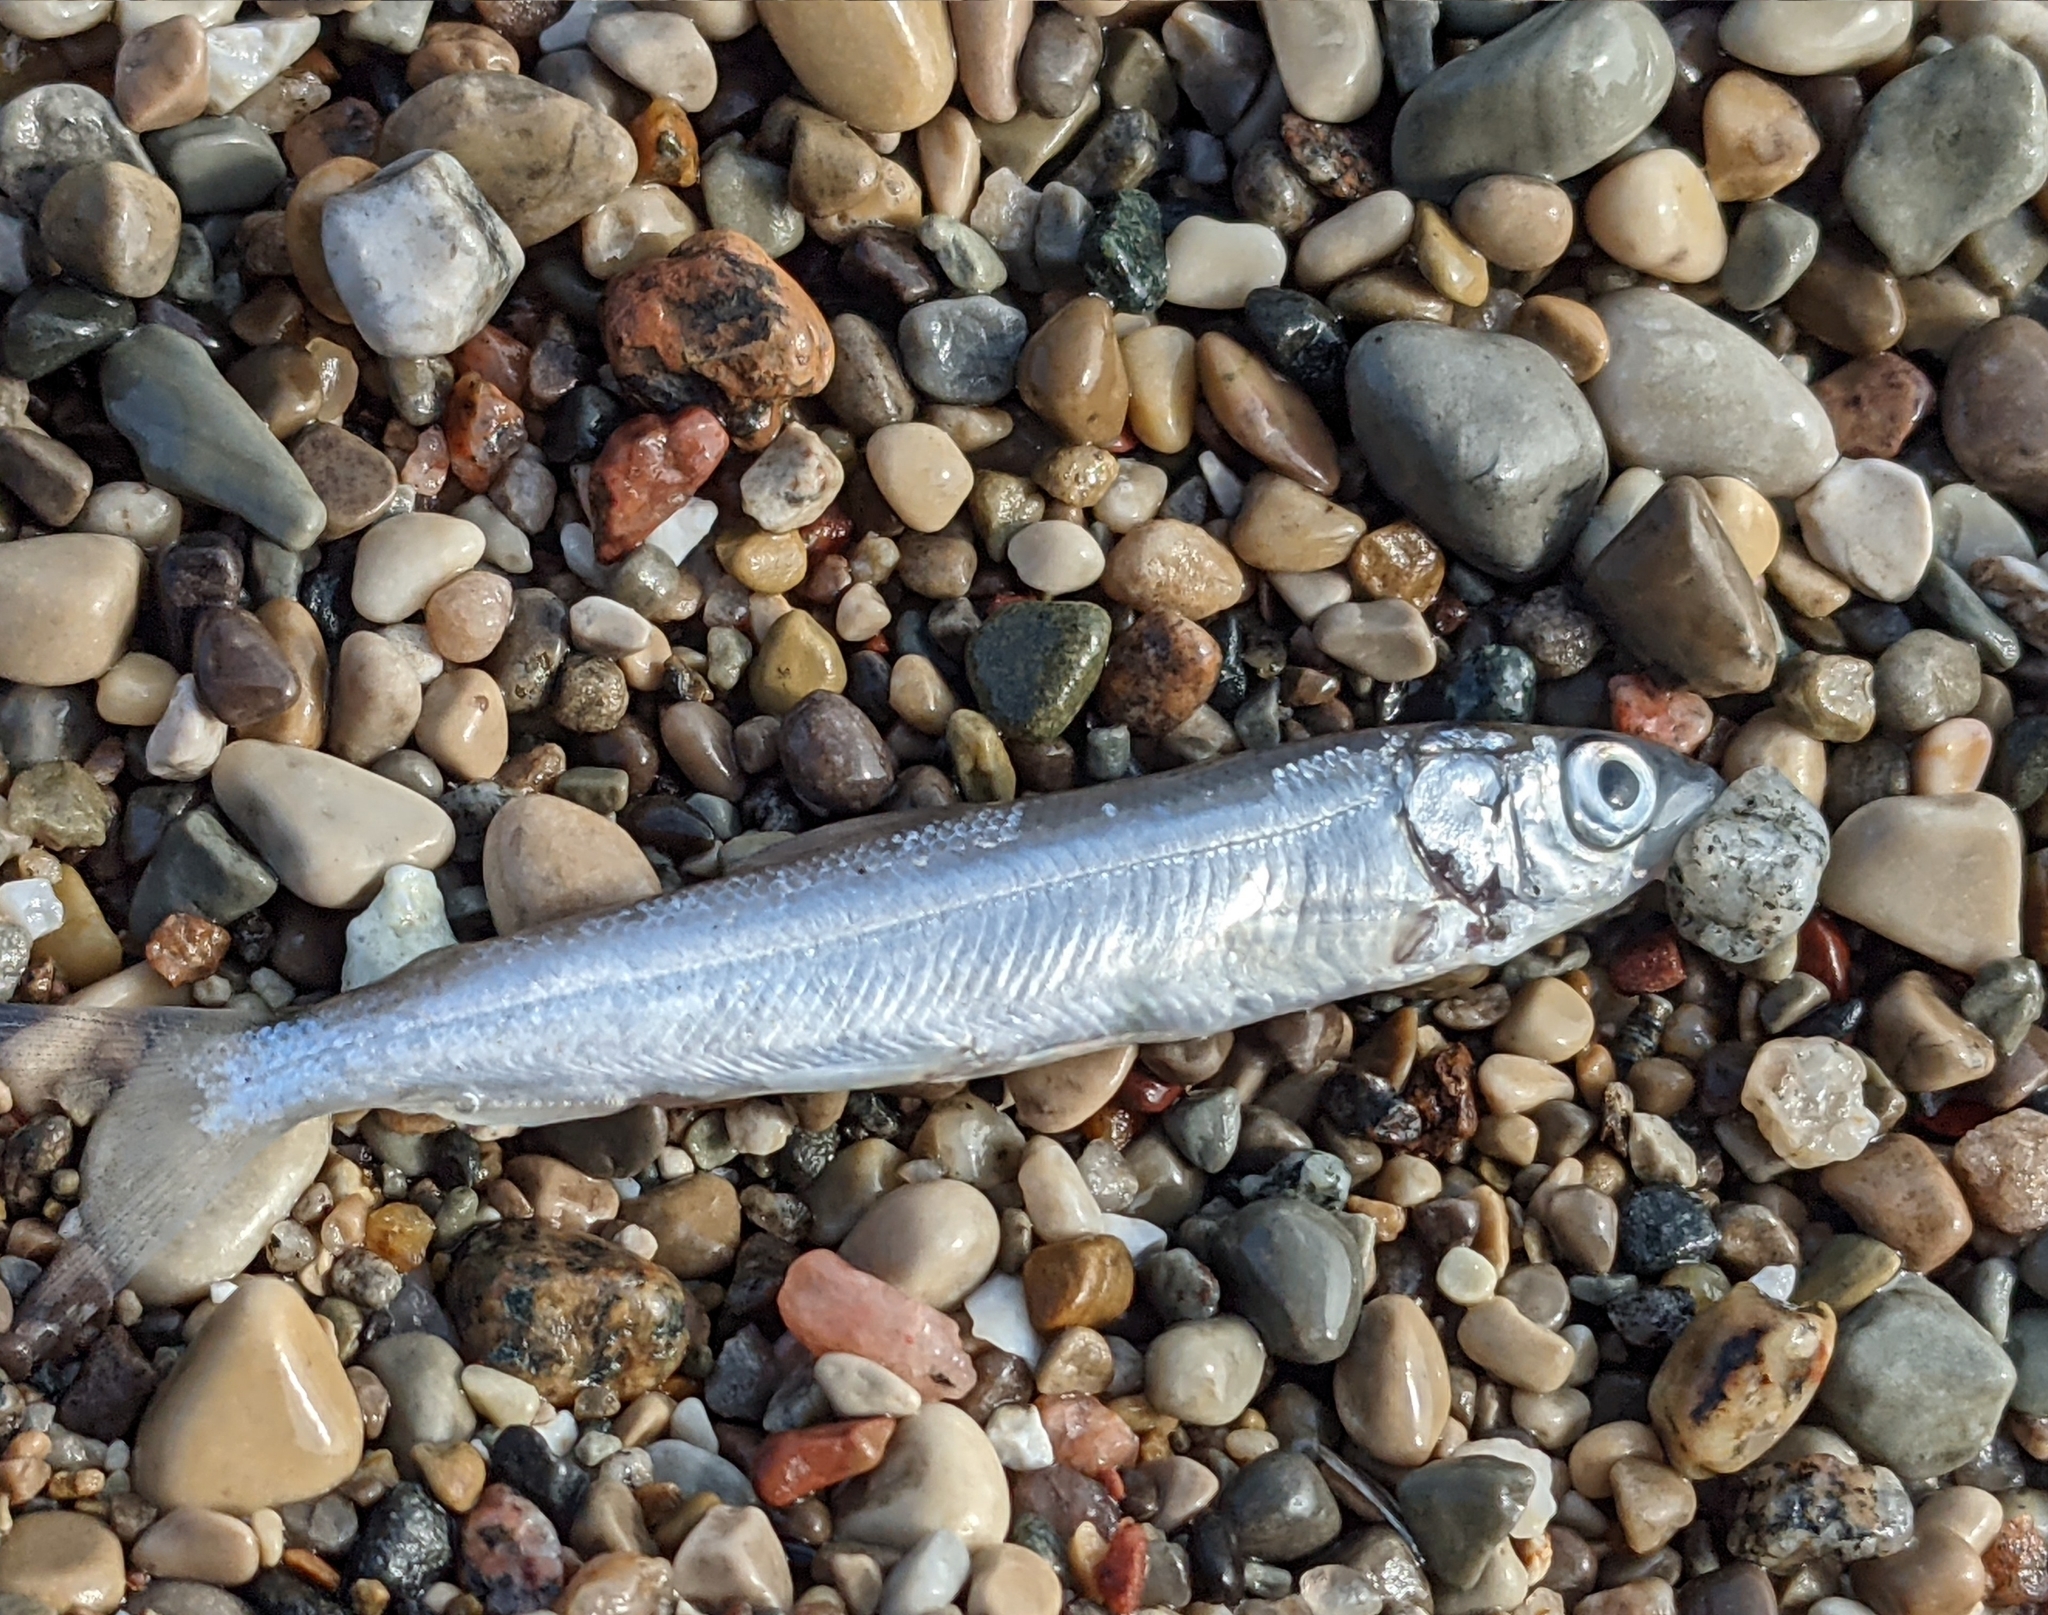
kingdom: Animalia
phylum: Chordata
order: Salmoniformes
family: Salmonidae
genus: Coregonus
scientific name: Coregonus artedi
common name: Cisco
